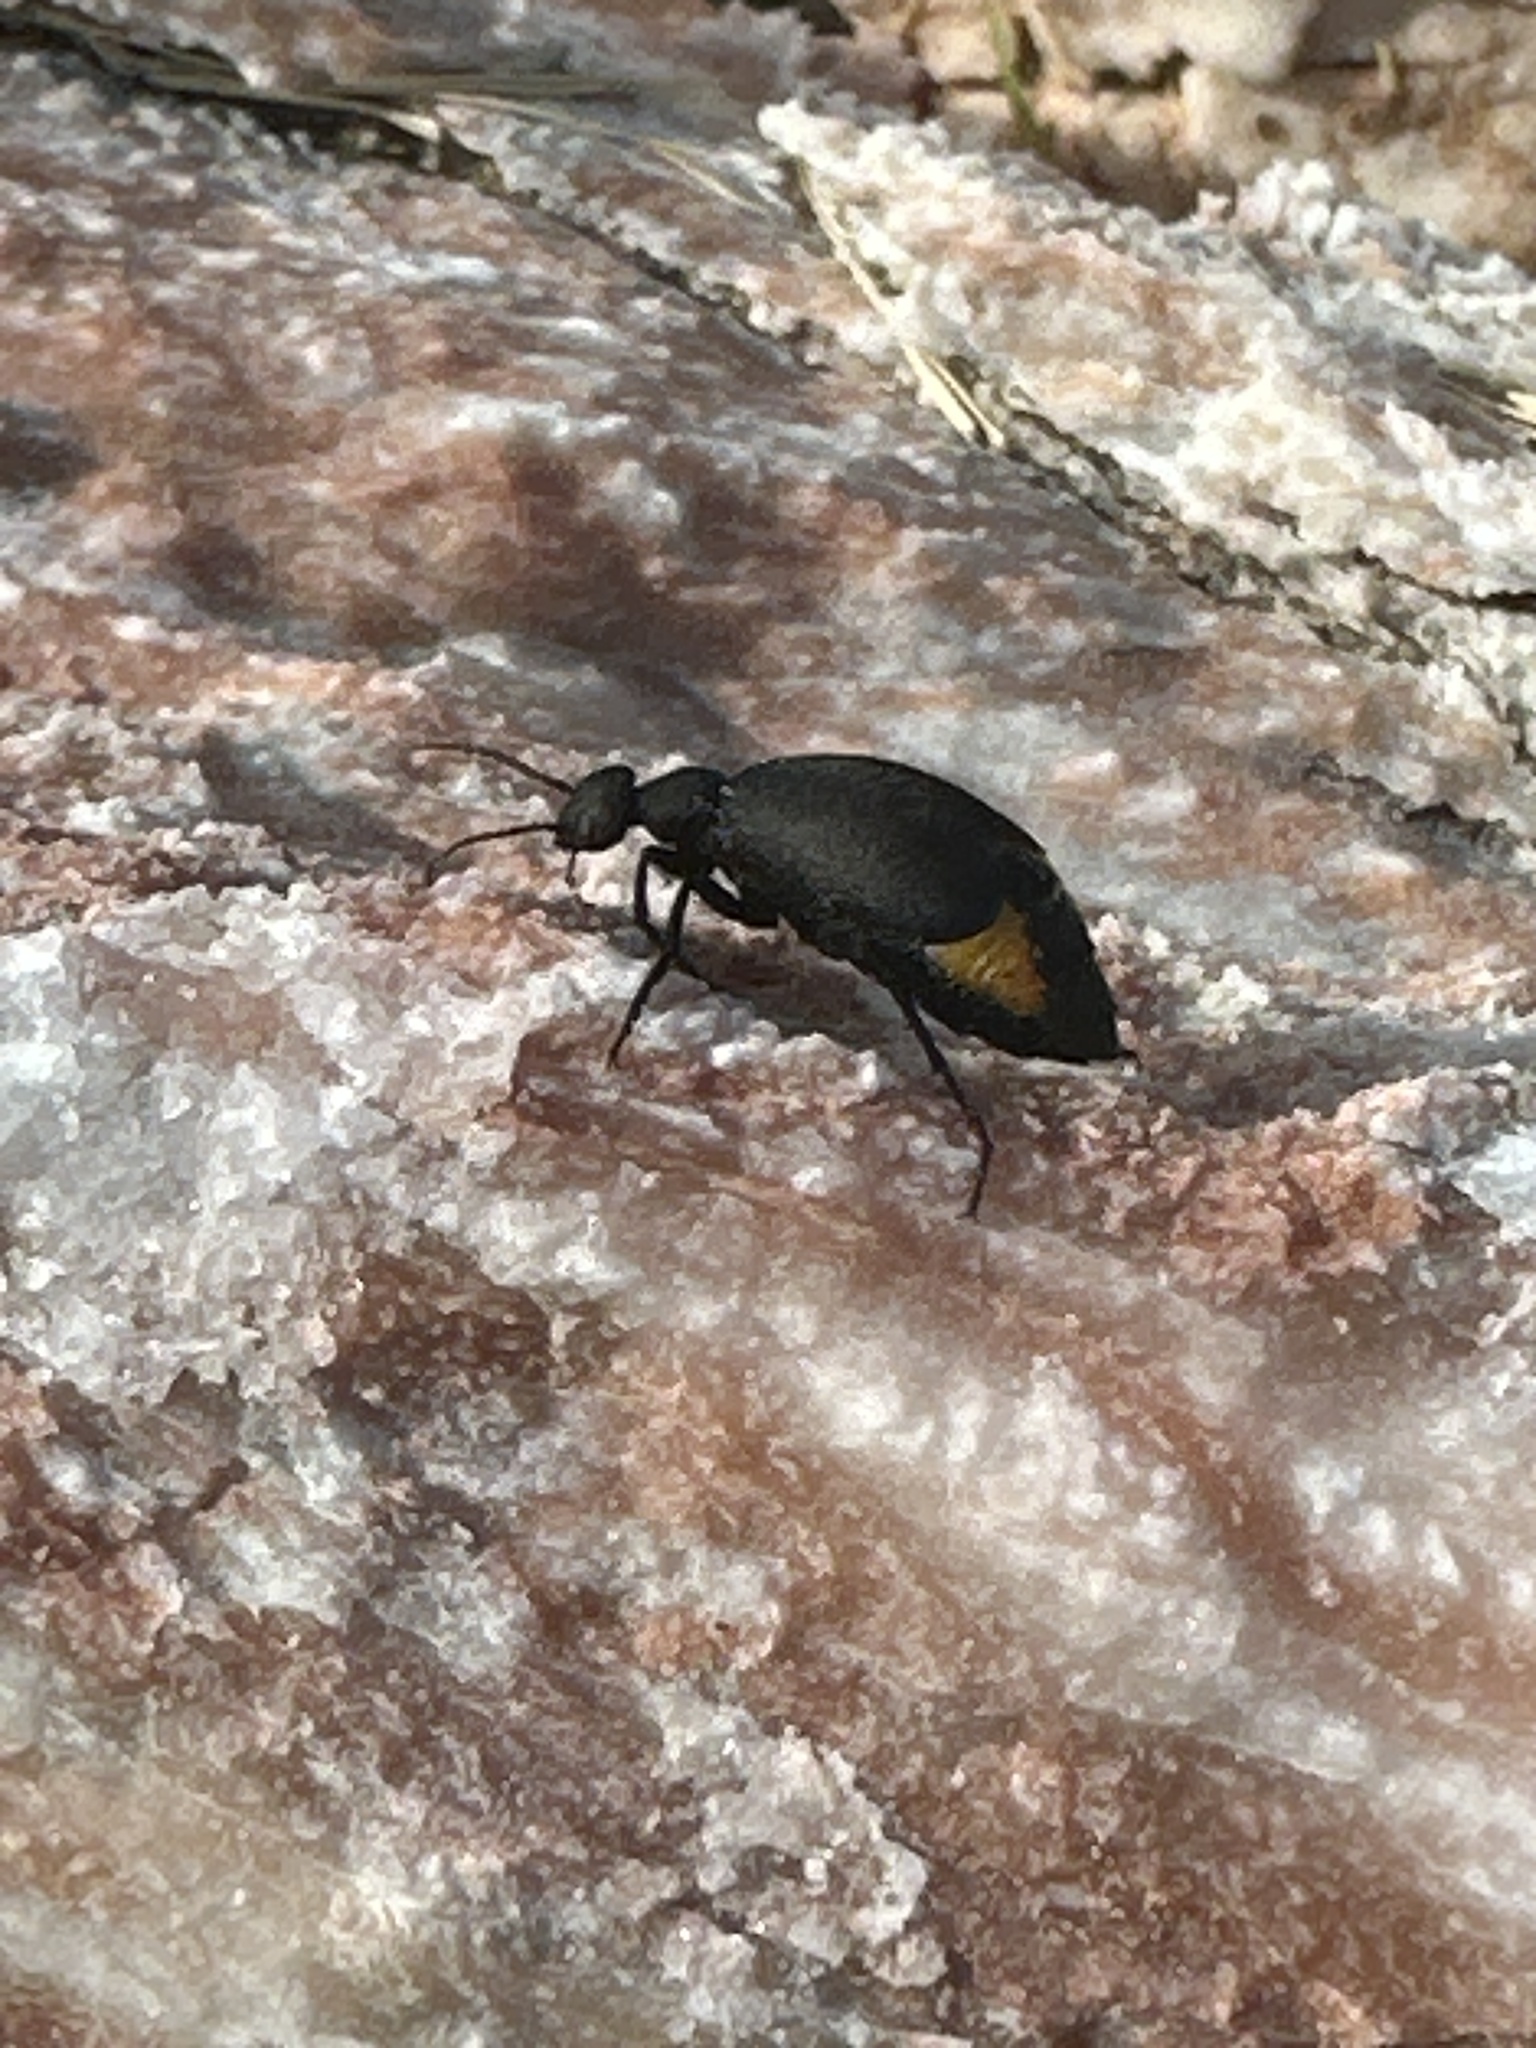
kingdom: Animalia
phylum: Arthropoda
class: Insecta
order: Coleoptera
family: Meloidae
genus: Epicauta
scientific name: Epicauta conferta
